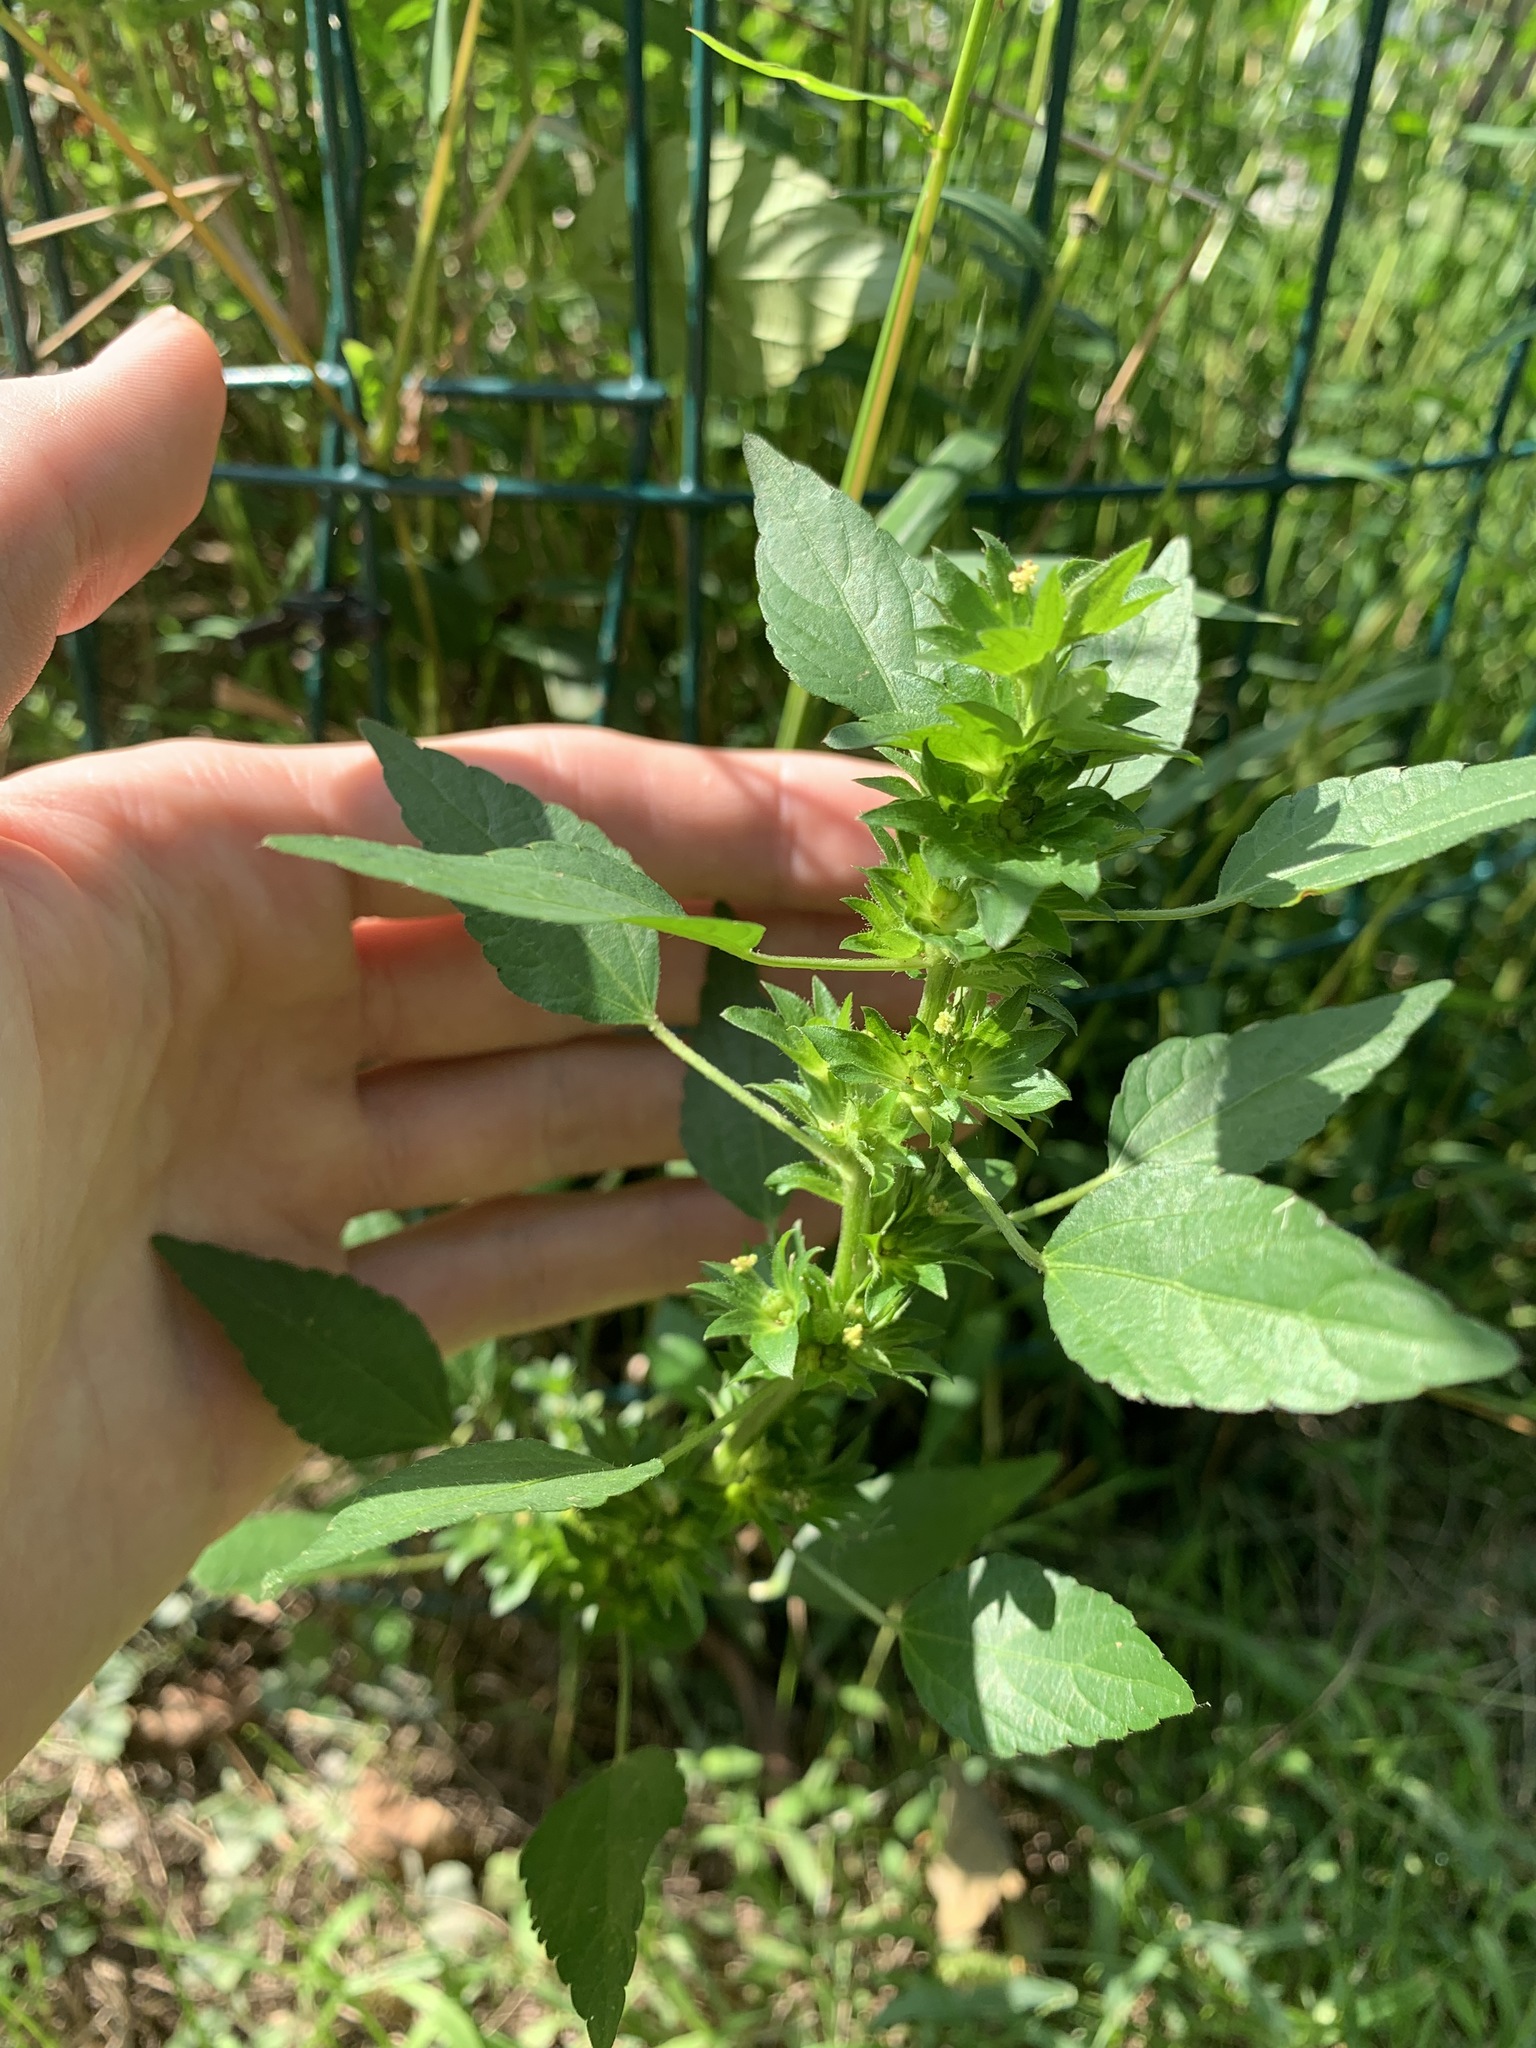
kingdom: Plantae
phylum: Tracheophyta
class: Magnoliopsida
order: Malpighiales
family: Euphorbiaceae
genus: Acalypha
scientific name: Acalypha rhomboidea
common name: Rhombic copperleaf
